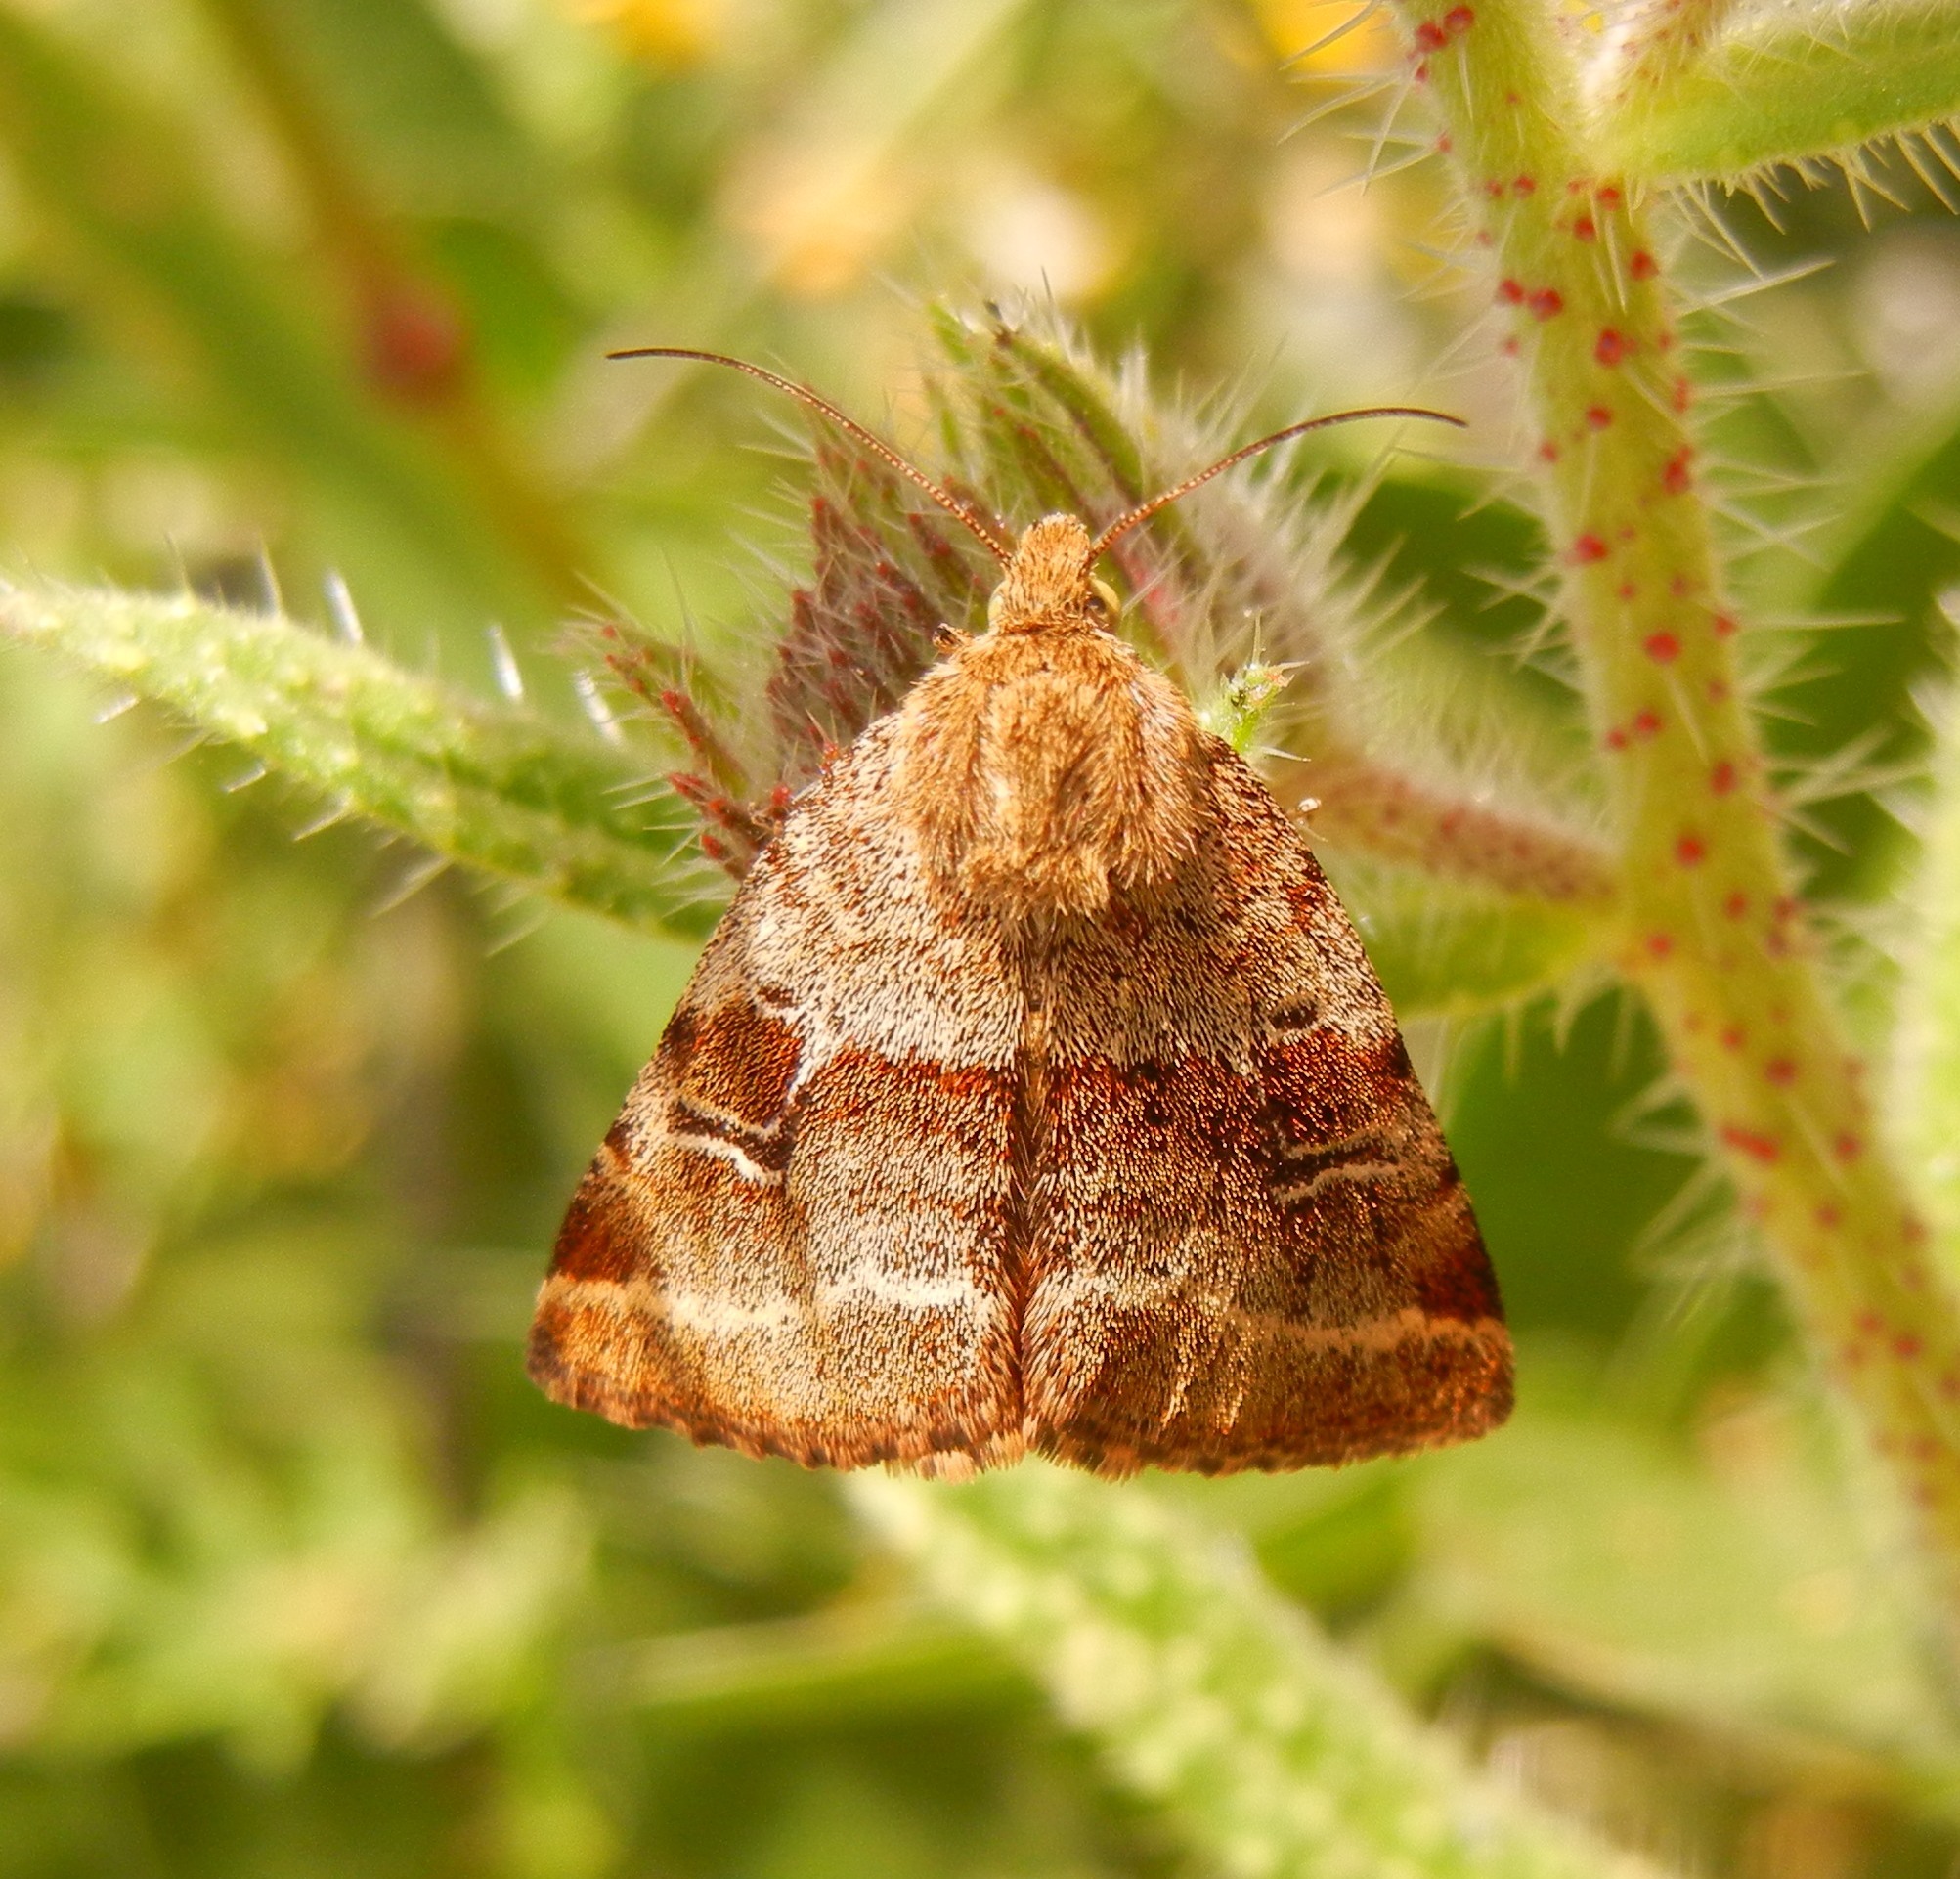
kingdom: Animalia
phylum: Arthropoda
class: Insecta
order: Lepidoptera
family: Noctuidae
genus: Synthymia
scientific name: Synthymia fixa
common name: Goldwing
